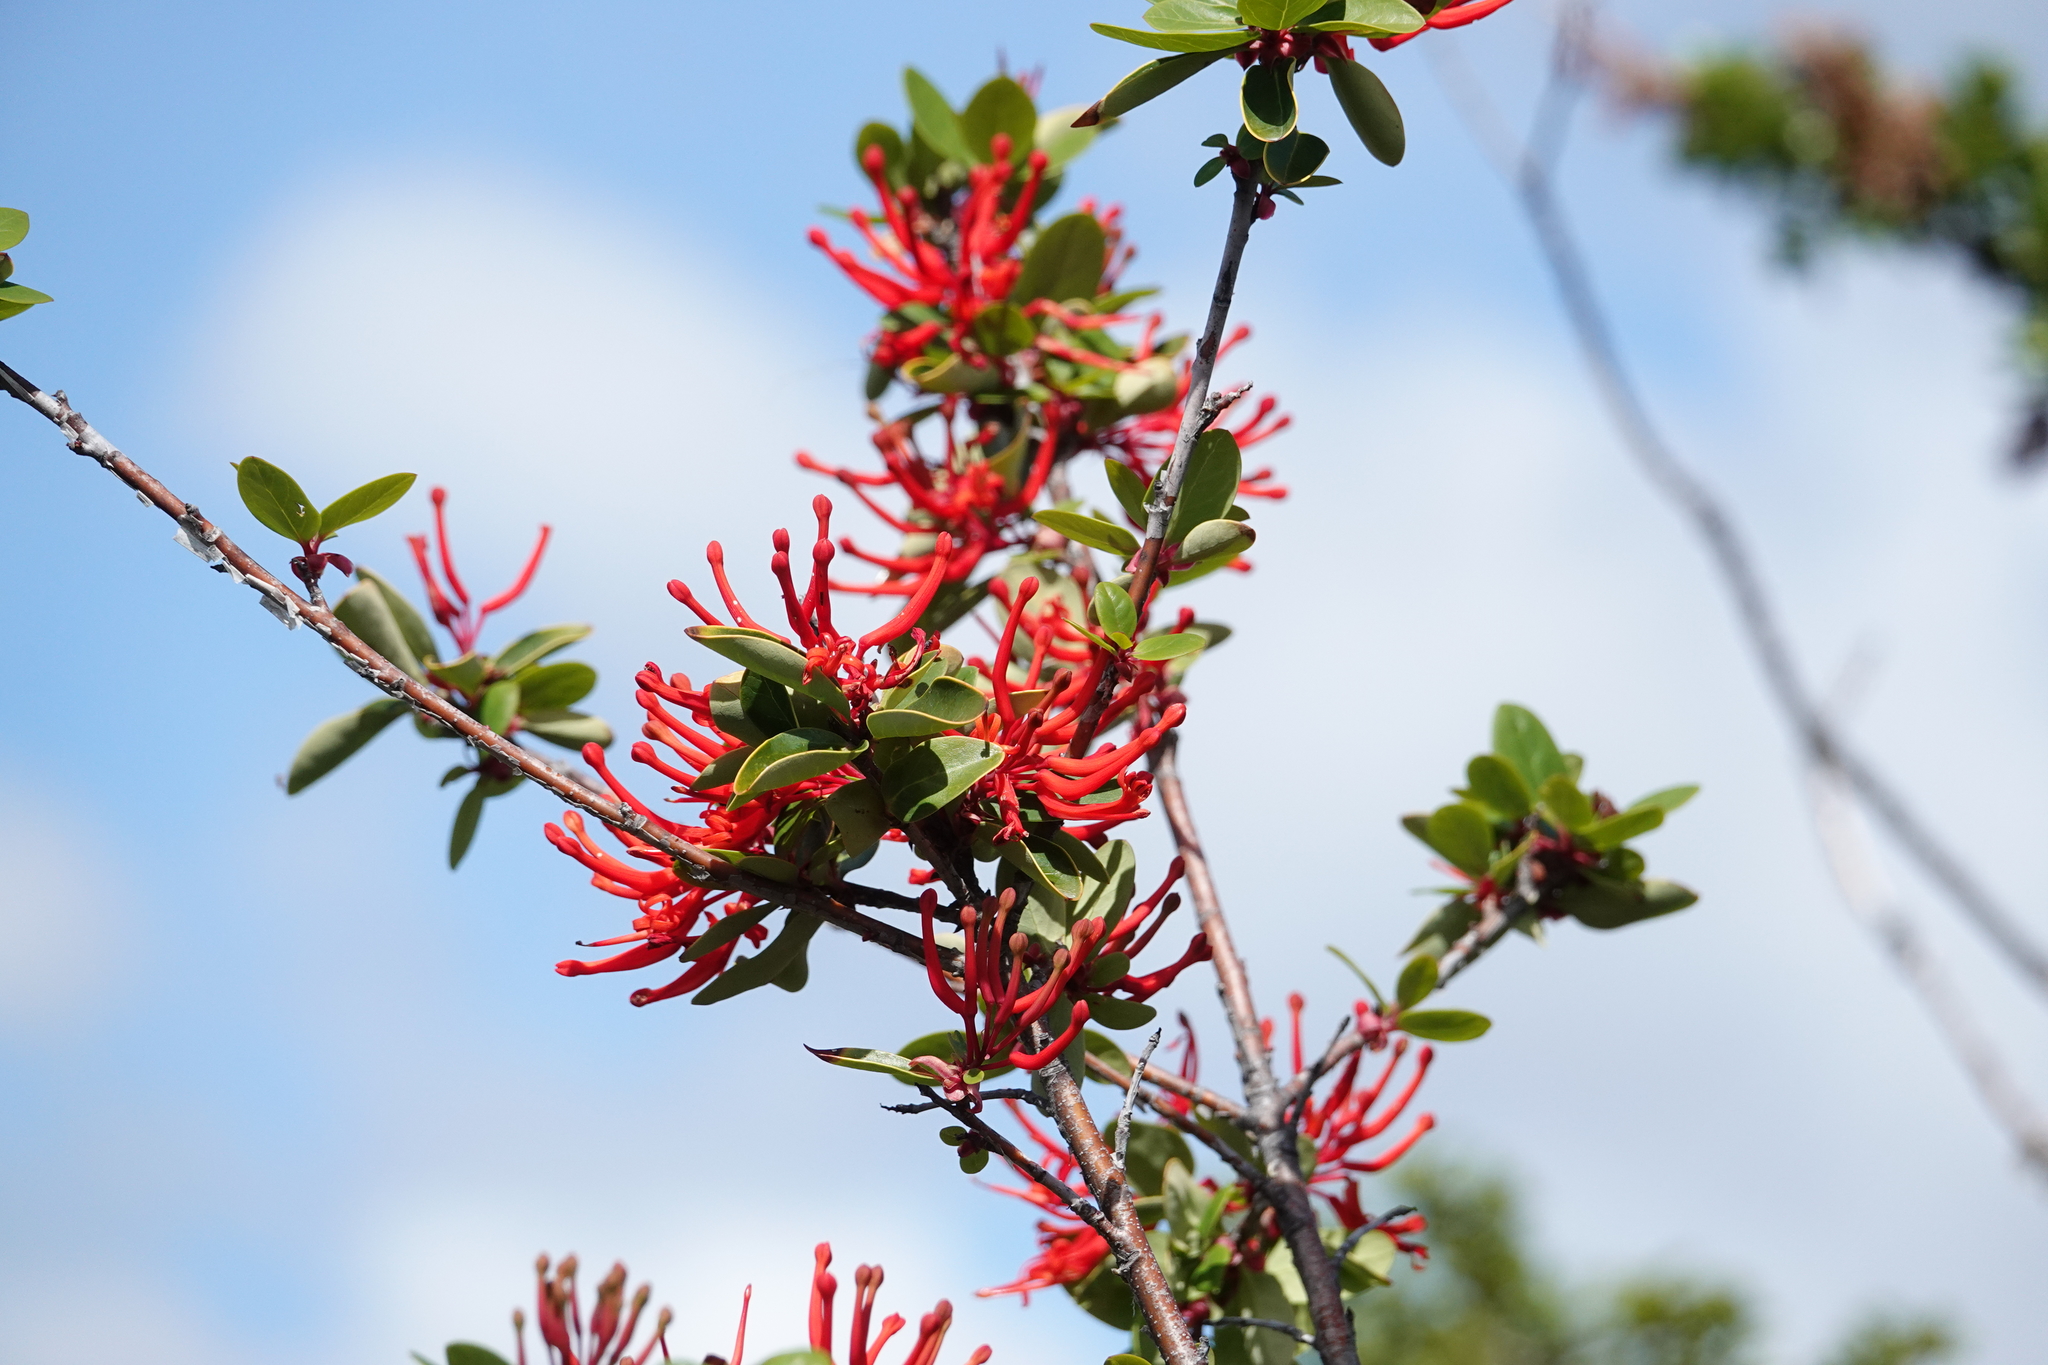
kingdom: Plantae
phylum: Tracheophyta
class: Magnoliopsida
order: Proteales
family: Proteaceae
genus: Embothrium
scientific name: Embothrium coccineum
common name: Chilean firebush
